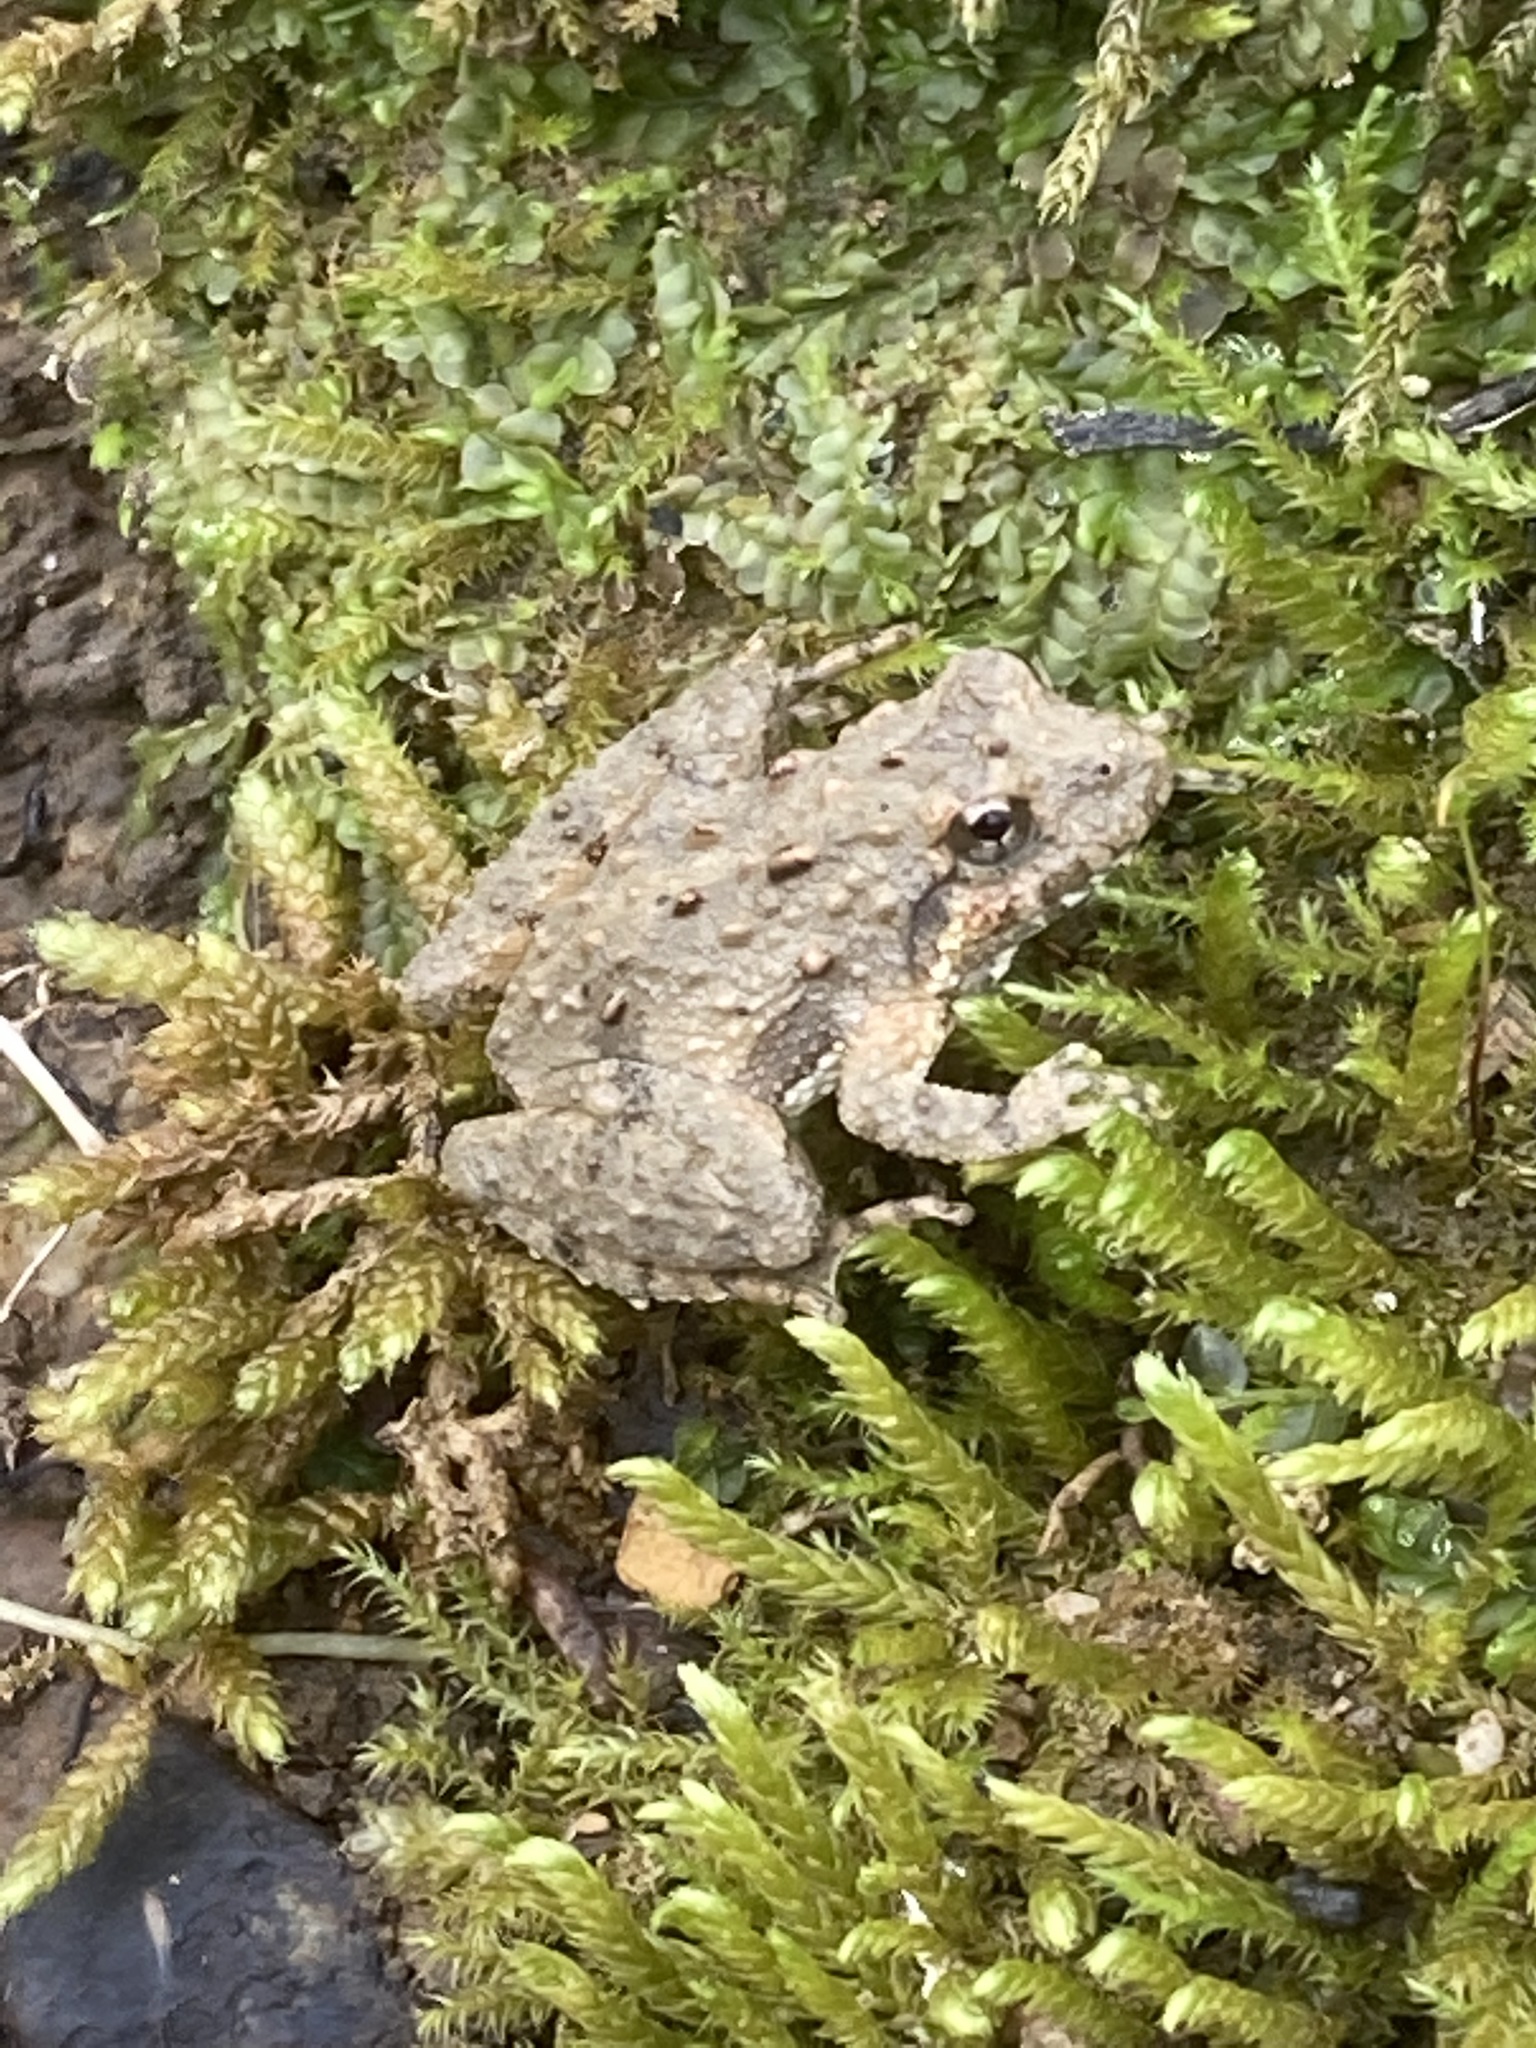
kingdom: Animalia
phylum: Chordata
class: Amphibia
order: Anura
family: Hylidae
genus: Acris
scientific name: Acris crepitans
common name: Northern cricket frog
